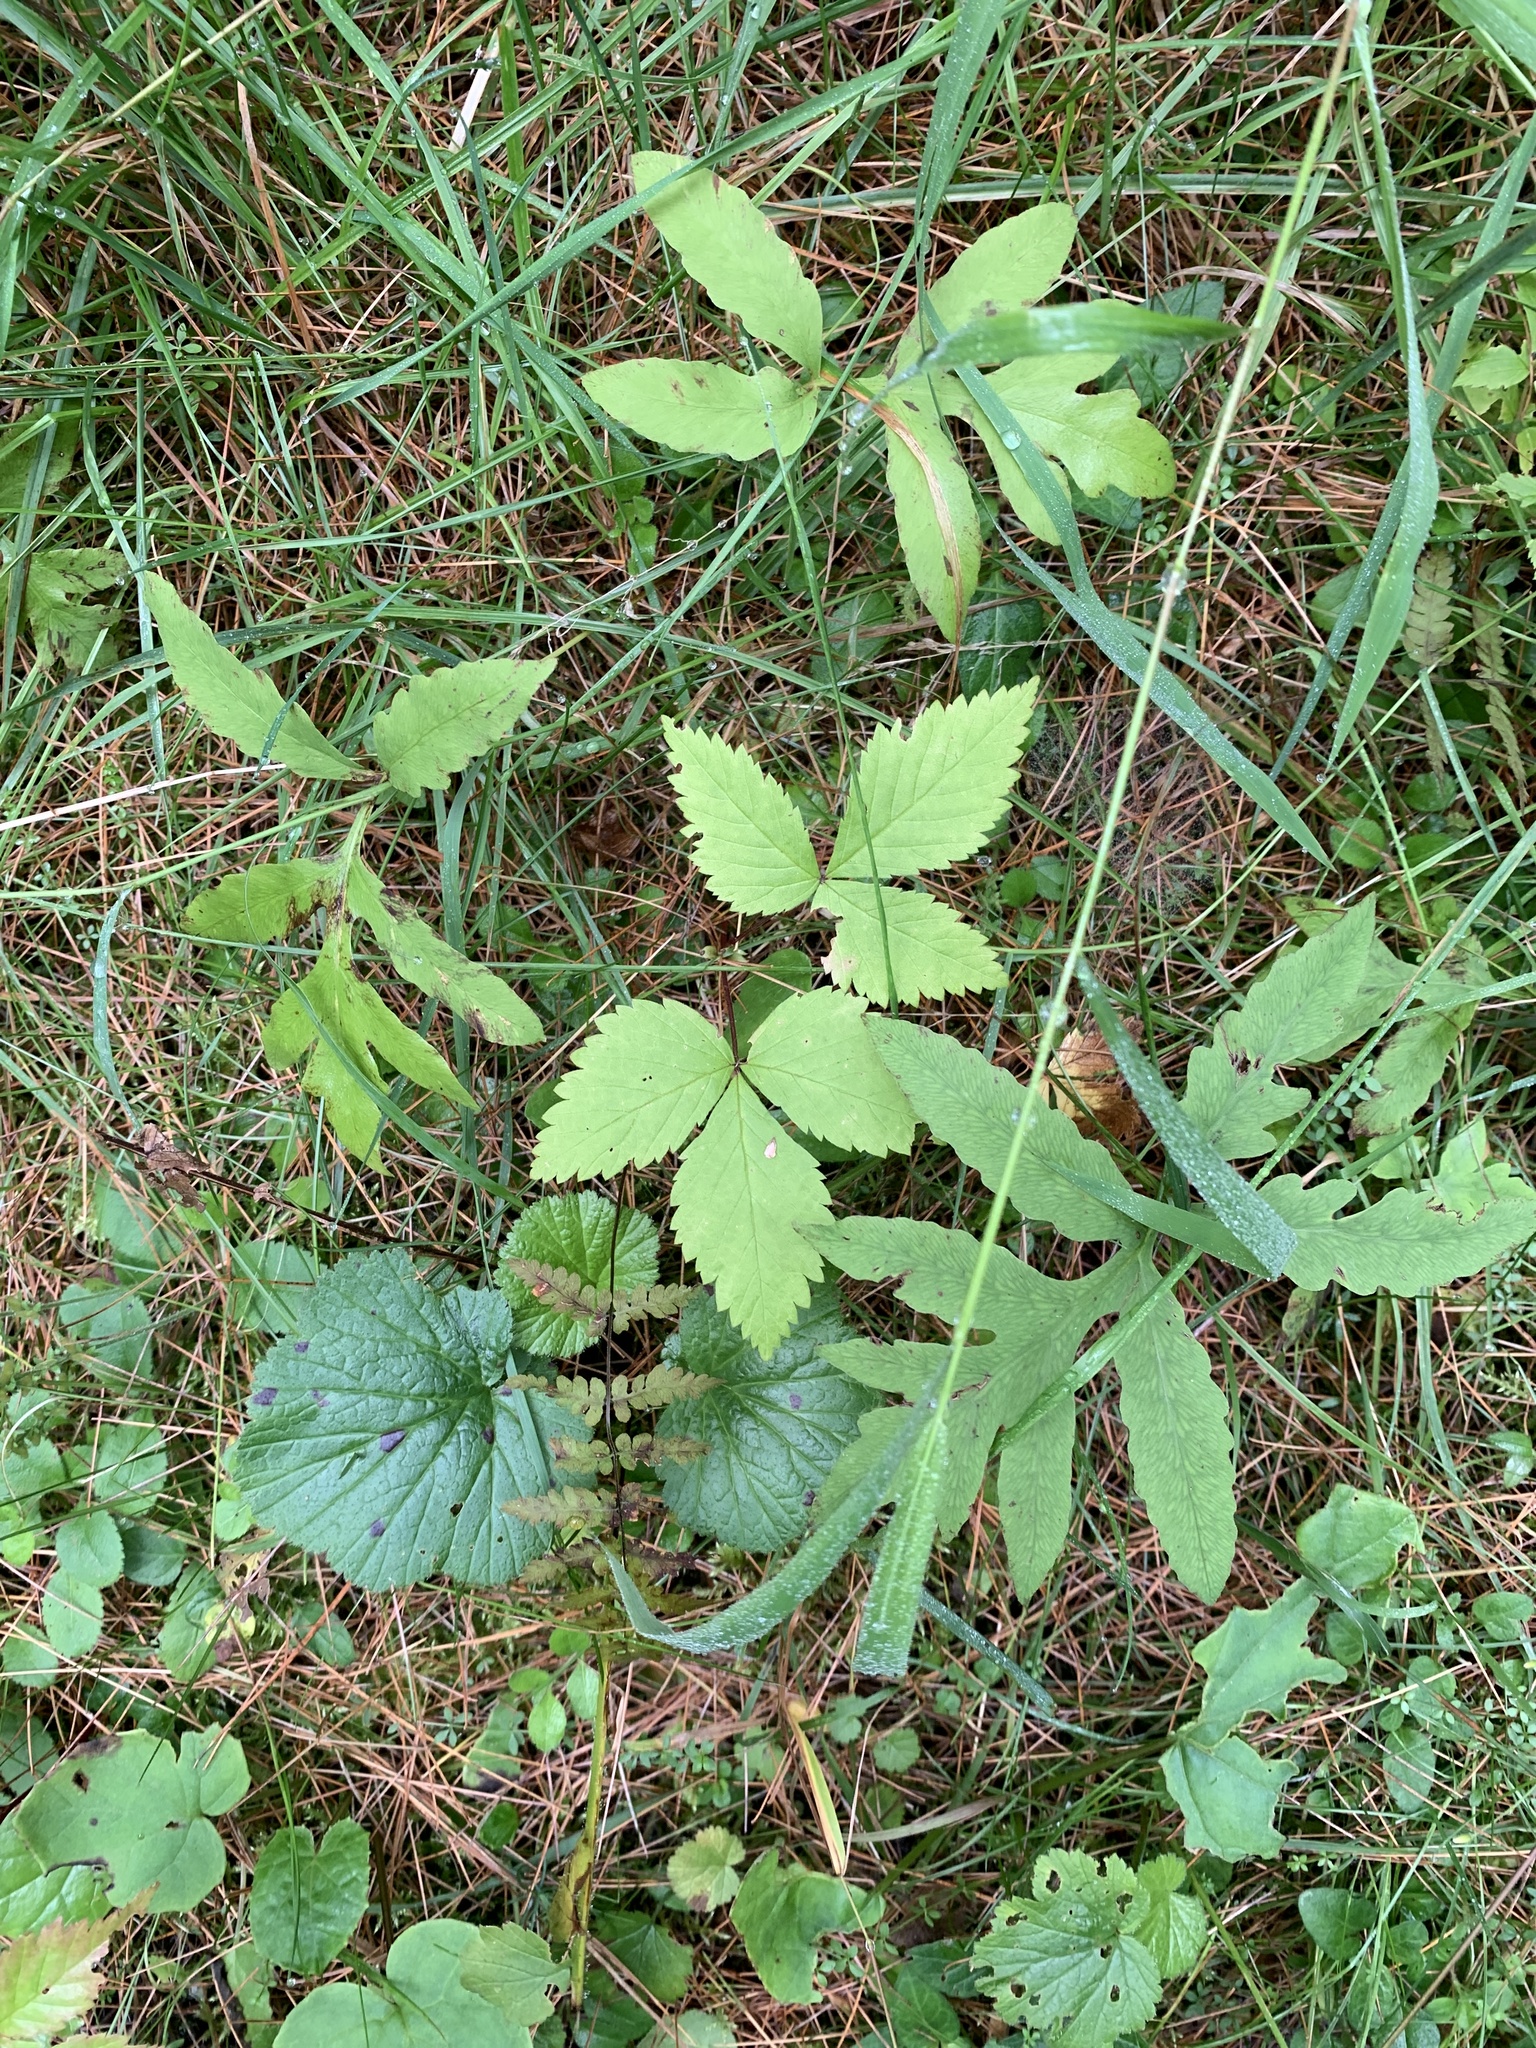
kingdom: Plantae
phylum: Tracheophyta
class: Magnoliopsida
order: Rosales
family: Rosaceae
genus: Rubus
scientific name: Rubus pubescens
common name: Dwarf raspberry
